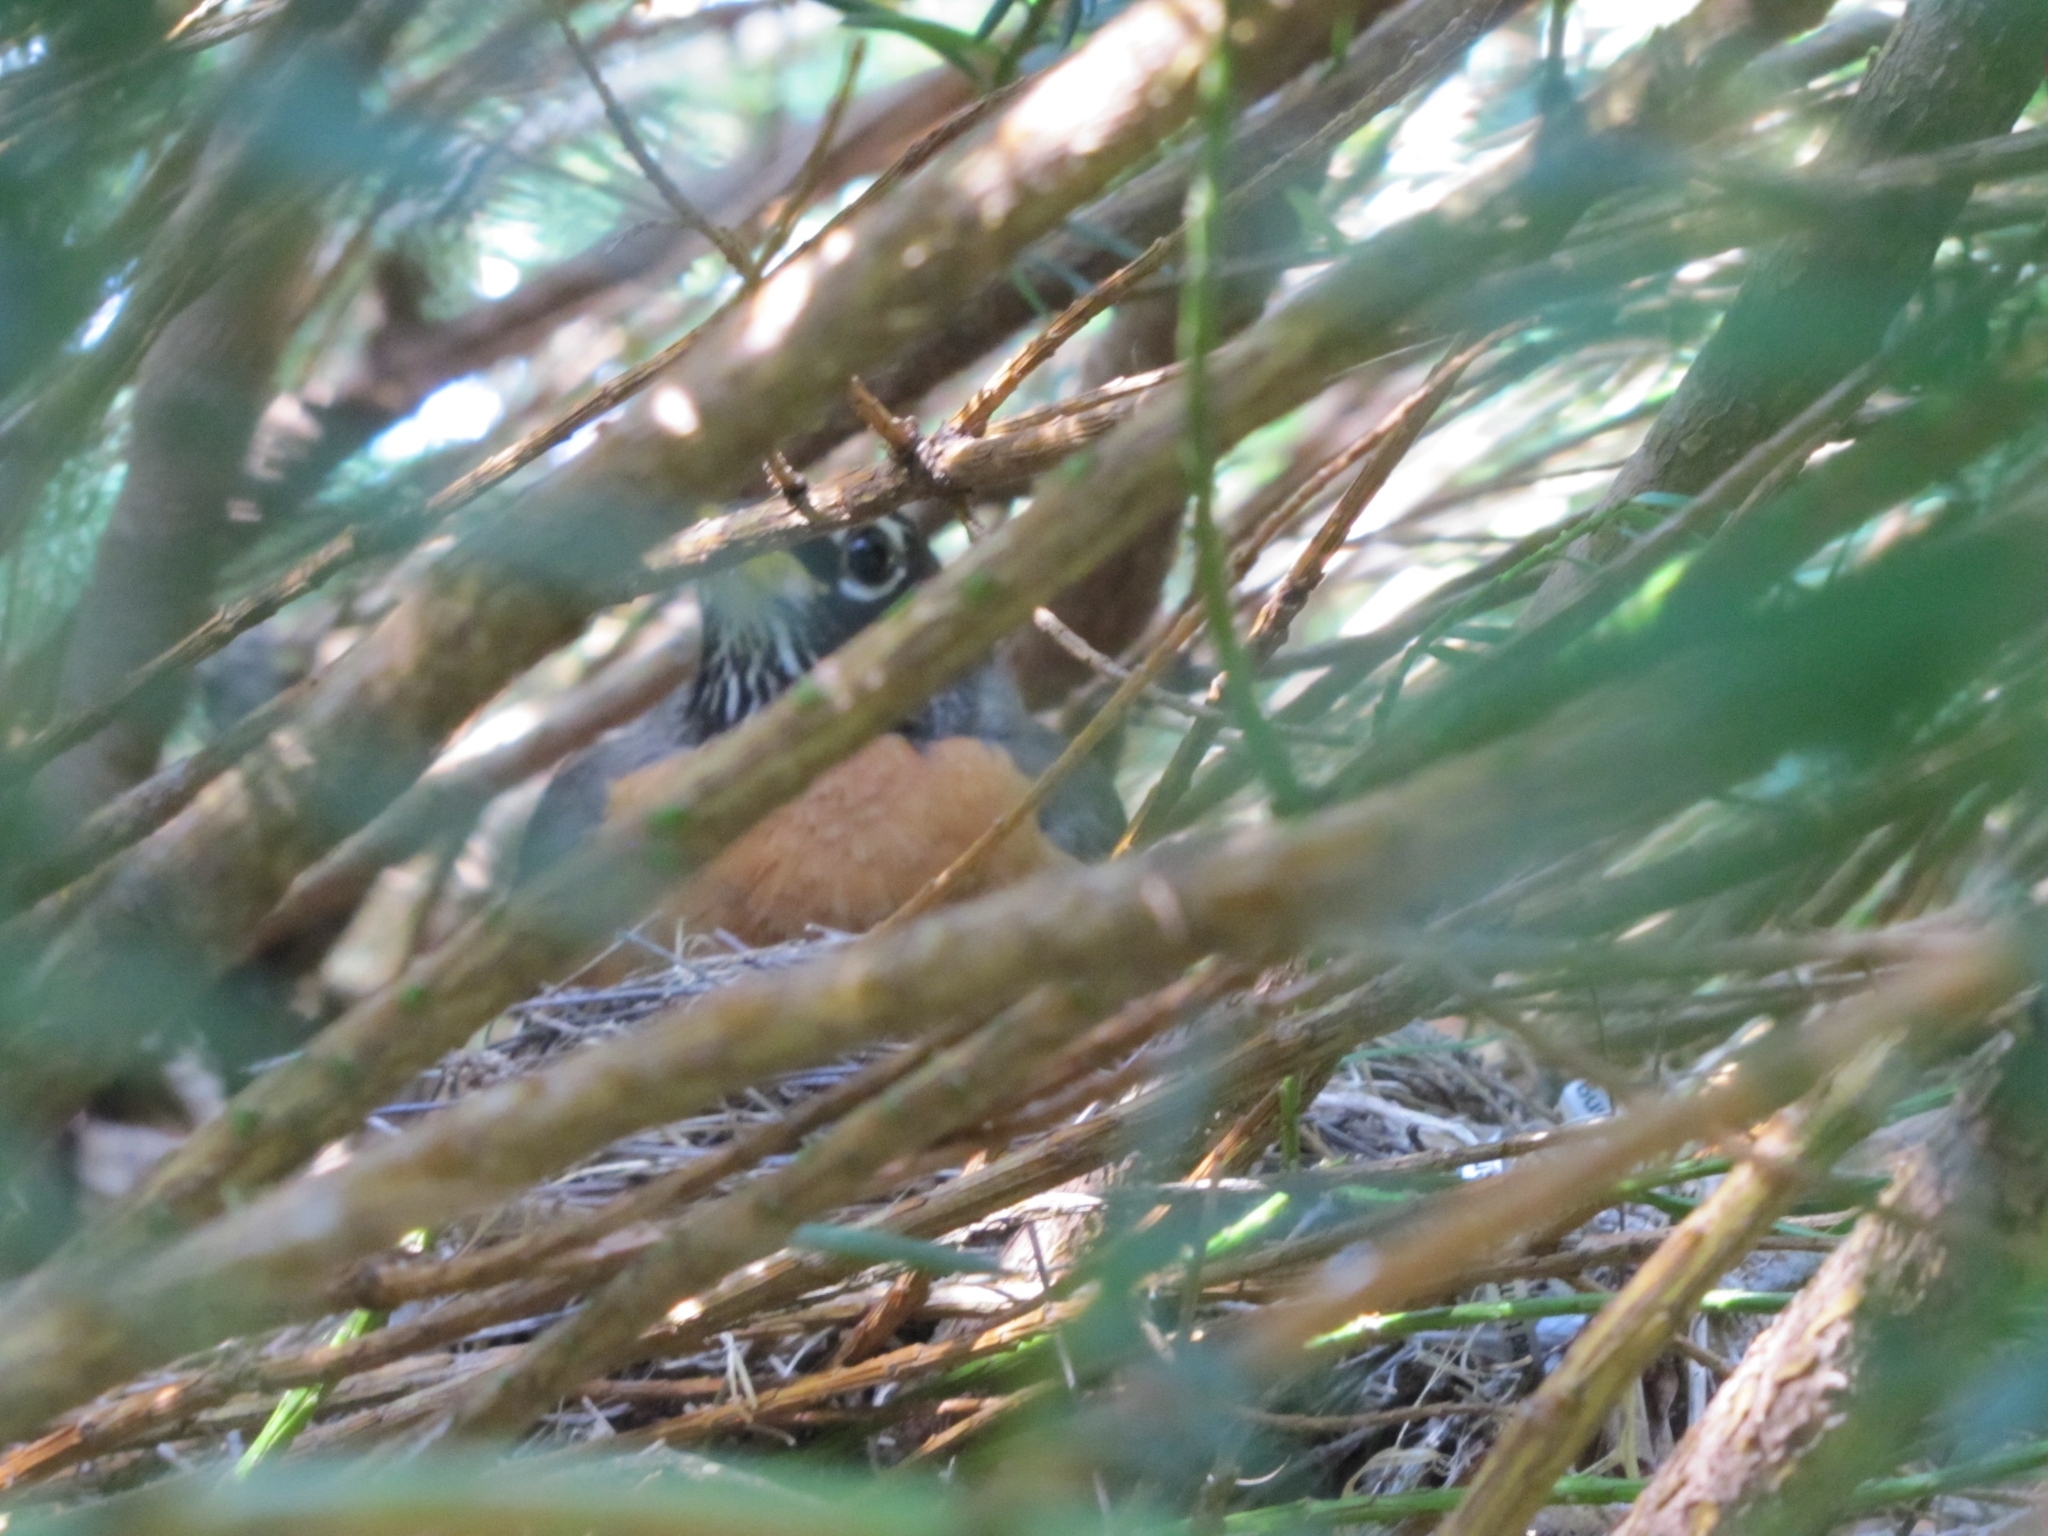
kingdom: Animalia
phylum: Chordata
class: Aves
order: Passeriformes
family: Turdidae
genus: Turdus
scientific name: Turdus migratorius
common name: American robin
